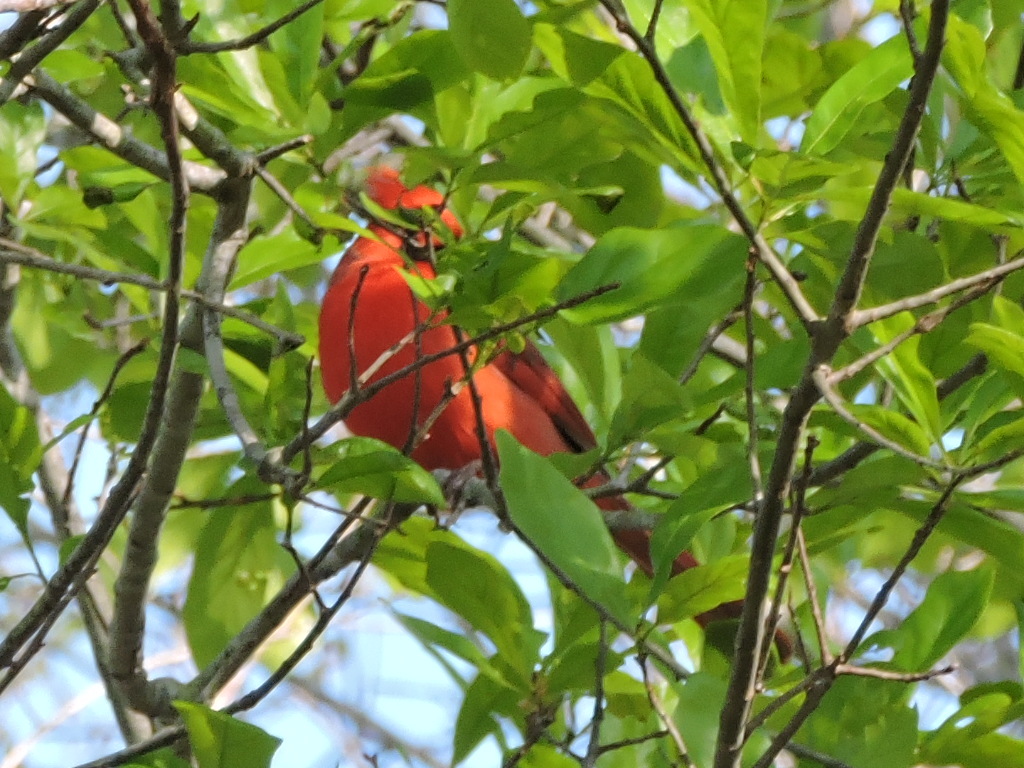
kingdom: Animalia
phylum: Chordata
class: Aves
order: Passeriformes
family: Cardinalidae
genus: Cardinalis
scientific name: Cardinalis cardinalis
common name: Northern cardinal
